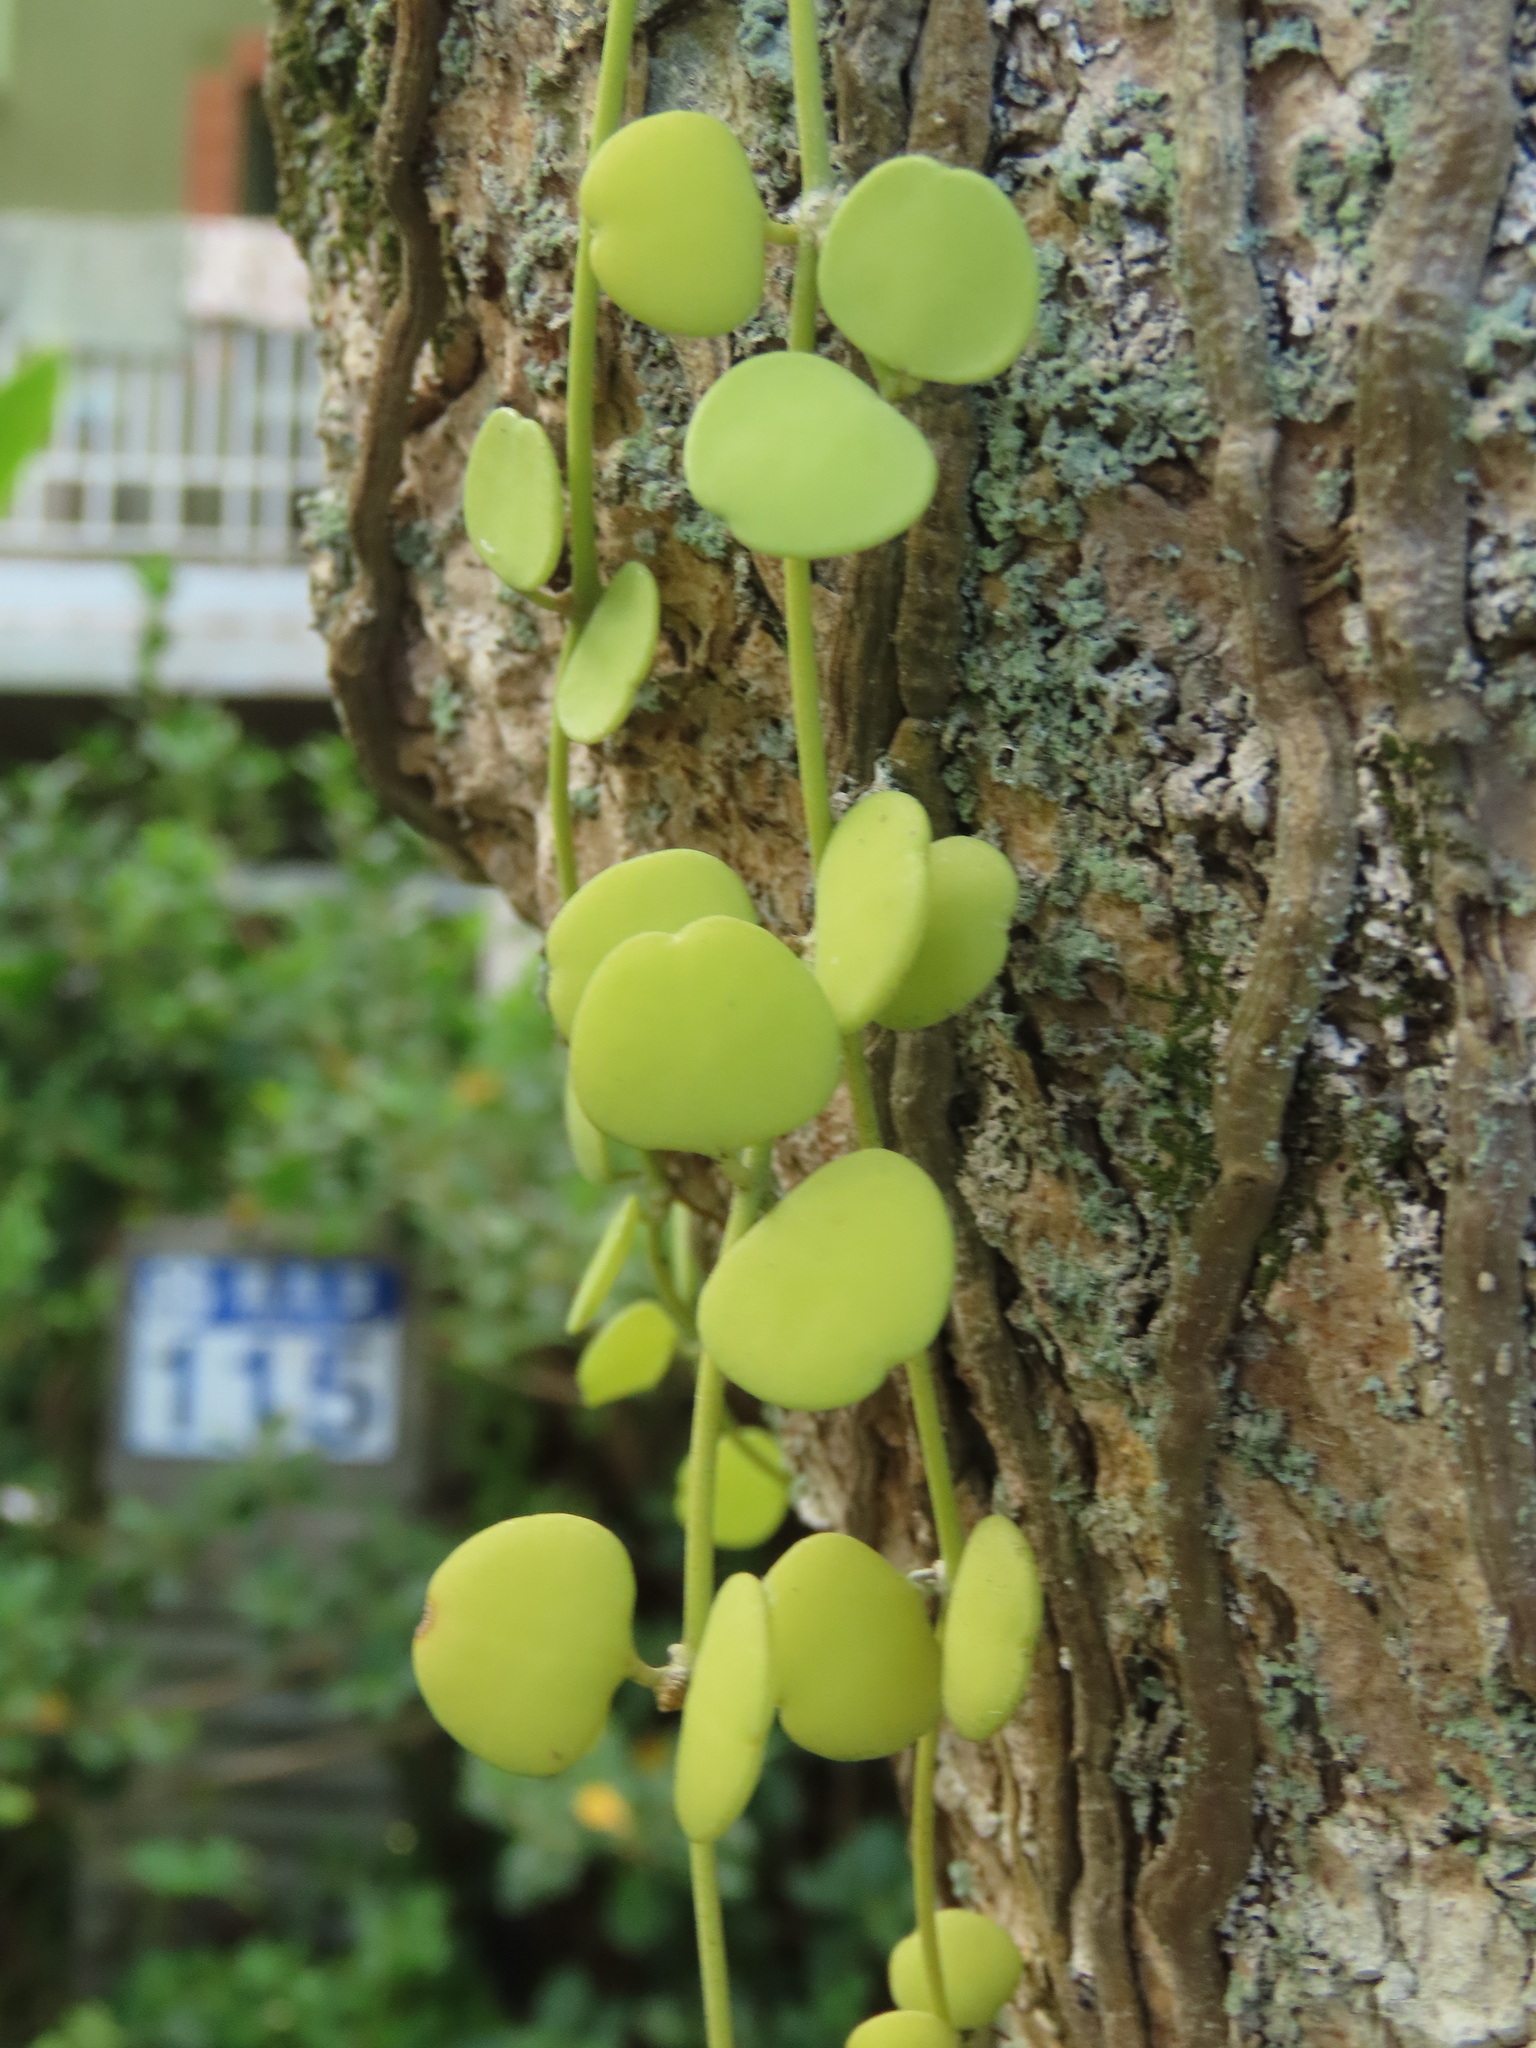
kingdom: Plantae
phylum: Tracheophyta
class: Magnoliopsida
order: Gentianales
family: Apocynaceae
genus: Dischidia
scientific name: Dischidia formosana
